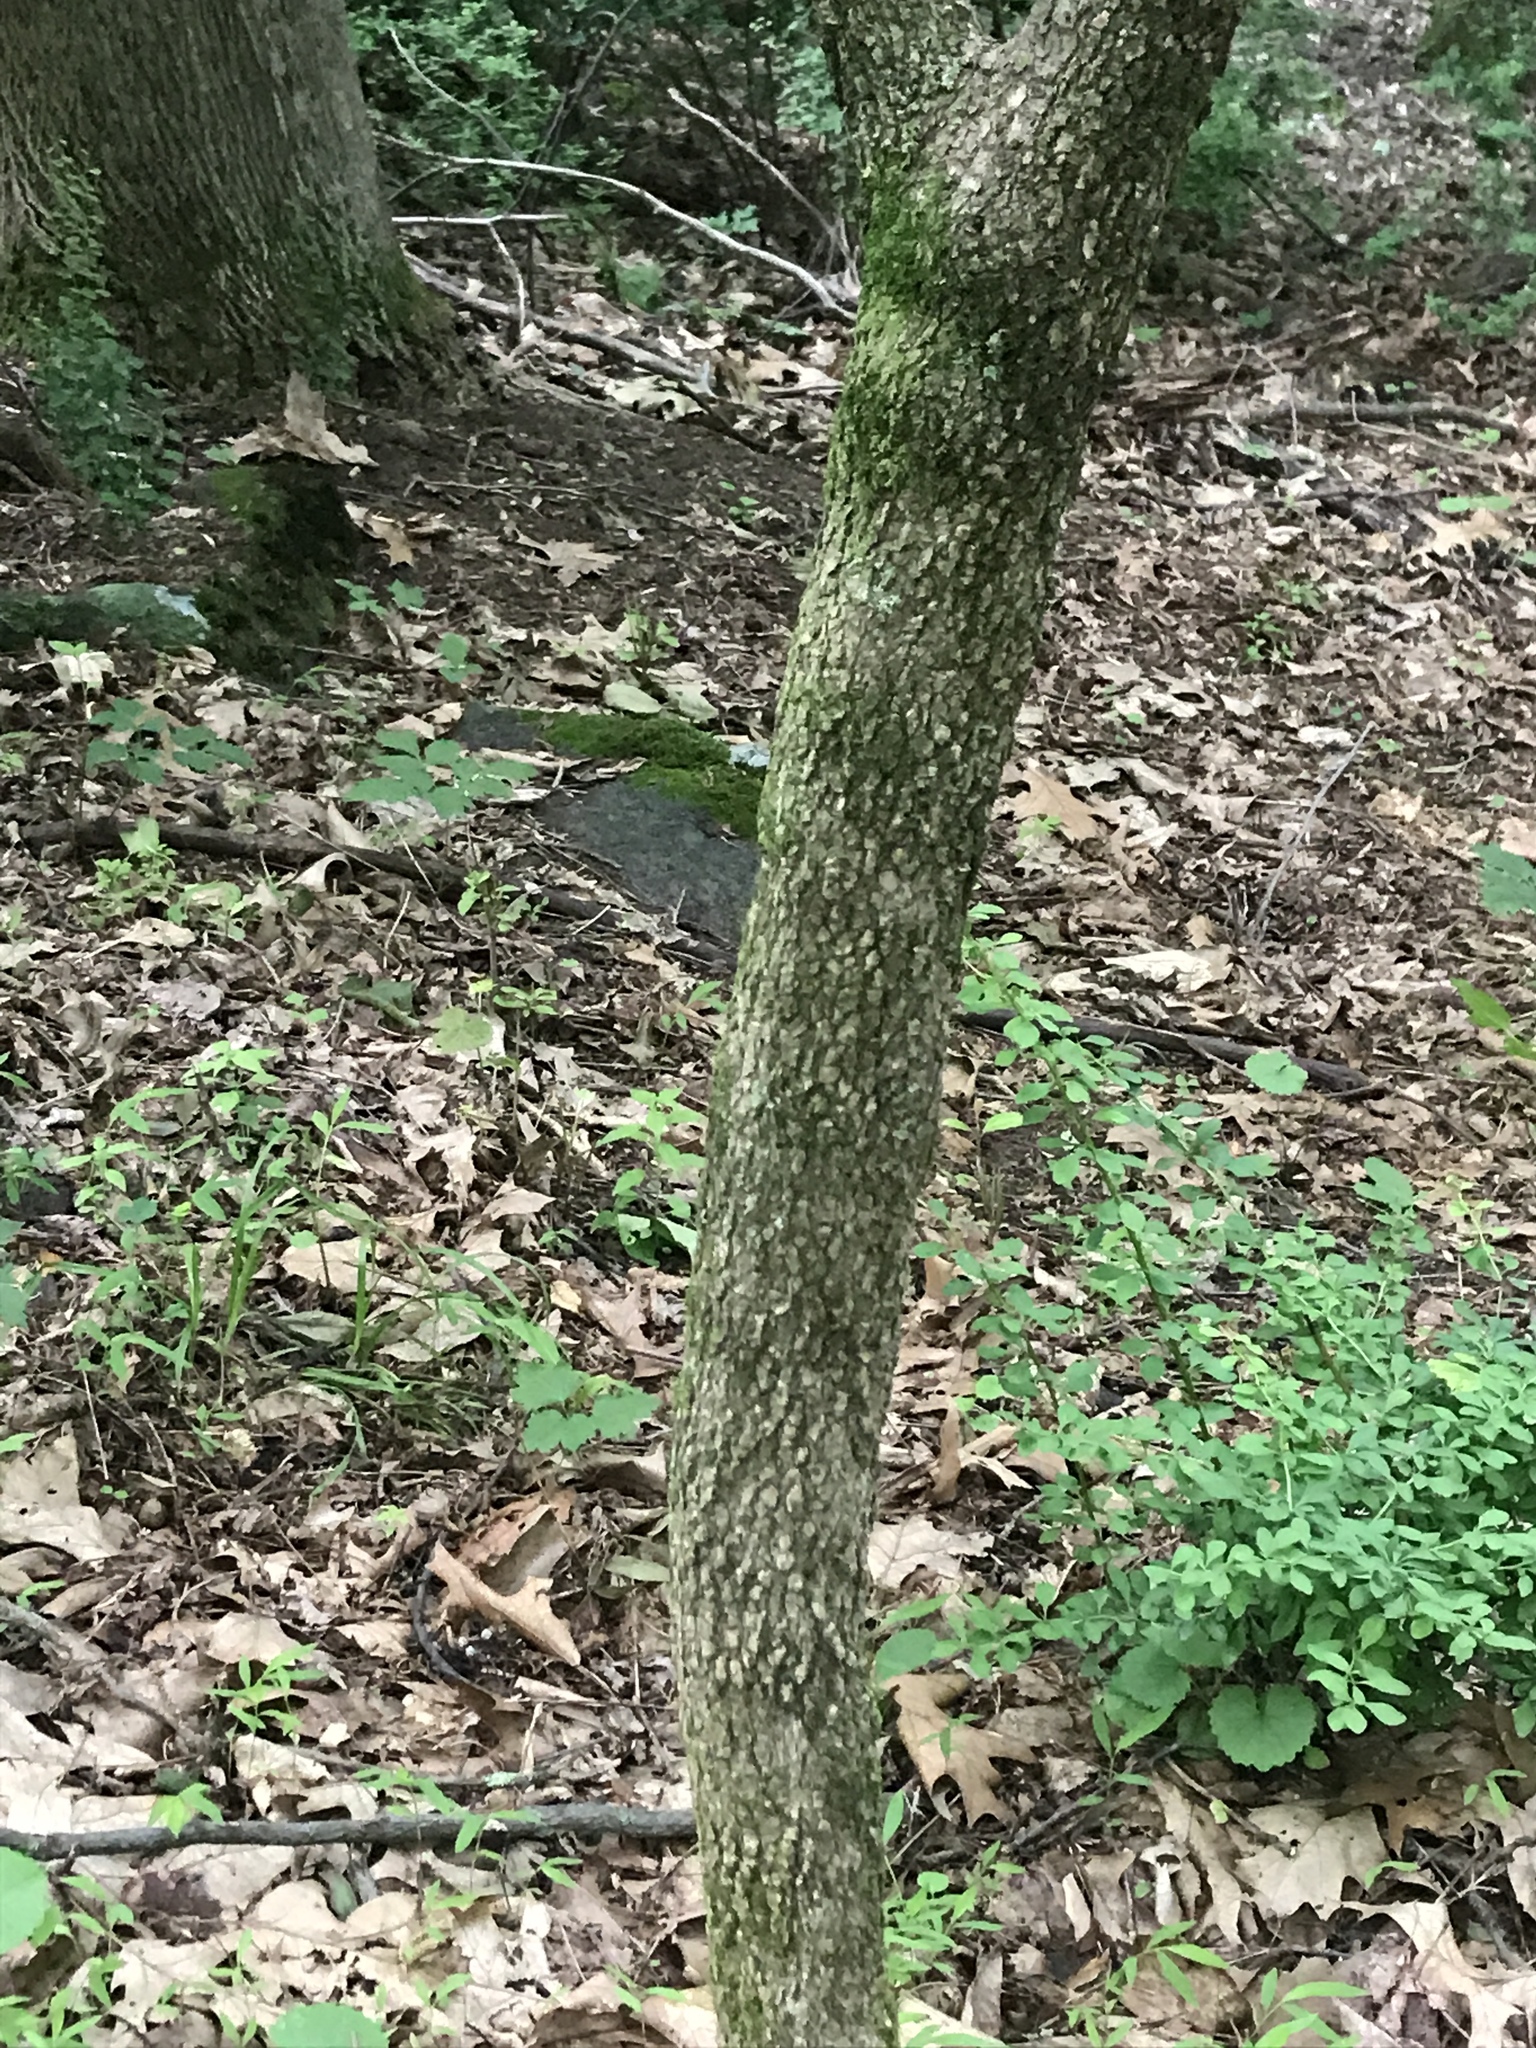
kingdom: Plantae
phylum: Tracheophyta
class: Magnoliopsida
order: Dipsacales
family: Viburnaceae
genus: Viburnum
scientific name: Viburnum prunifolium
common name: Black haw
